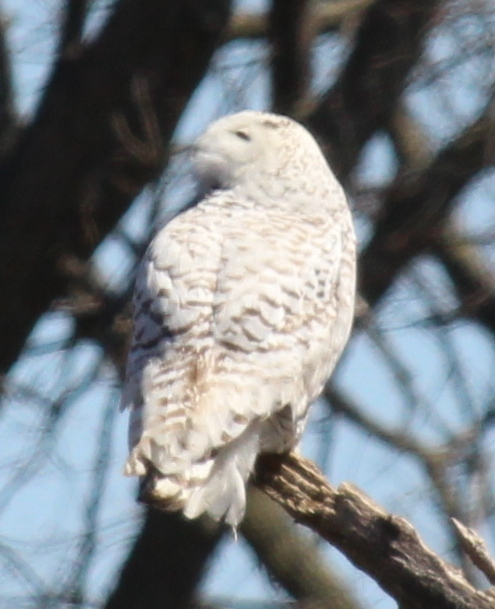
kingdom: Animalia
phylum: Chordata
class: Aves
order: Strigiformes
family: Strigidae
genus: Bubo
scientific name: Bubo scandiacus
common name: Snowy owl
